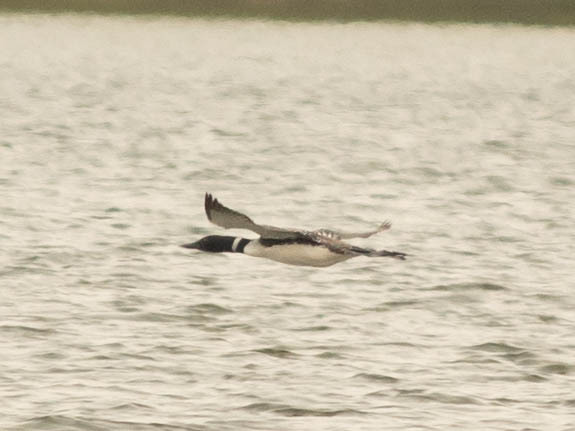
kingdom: Animalia
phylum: Chordata
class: Aves
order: Gaviiformes
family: Gaviidae
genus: Gavia
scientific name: Gavia immer
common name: Common loon
